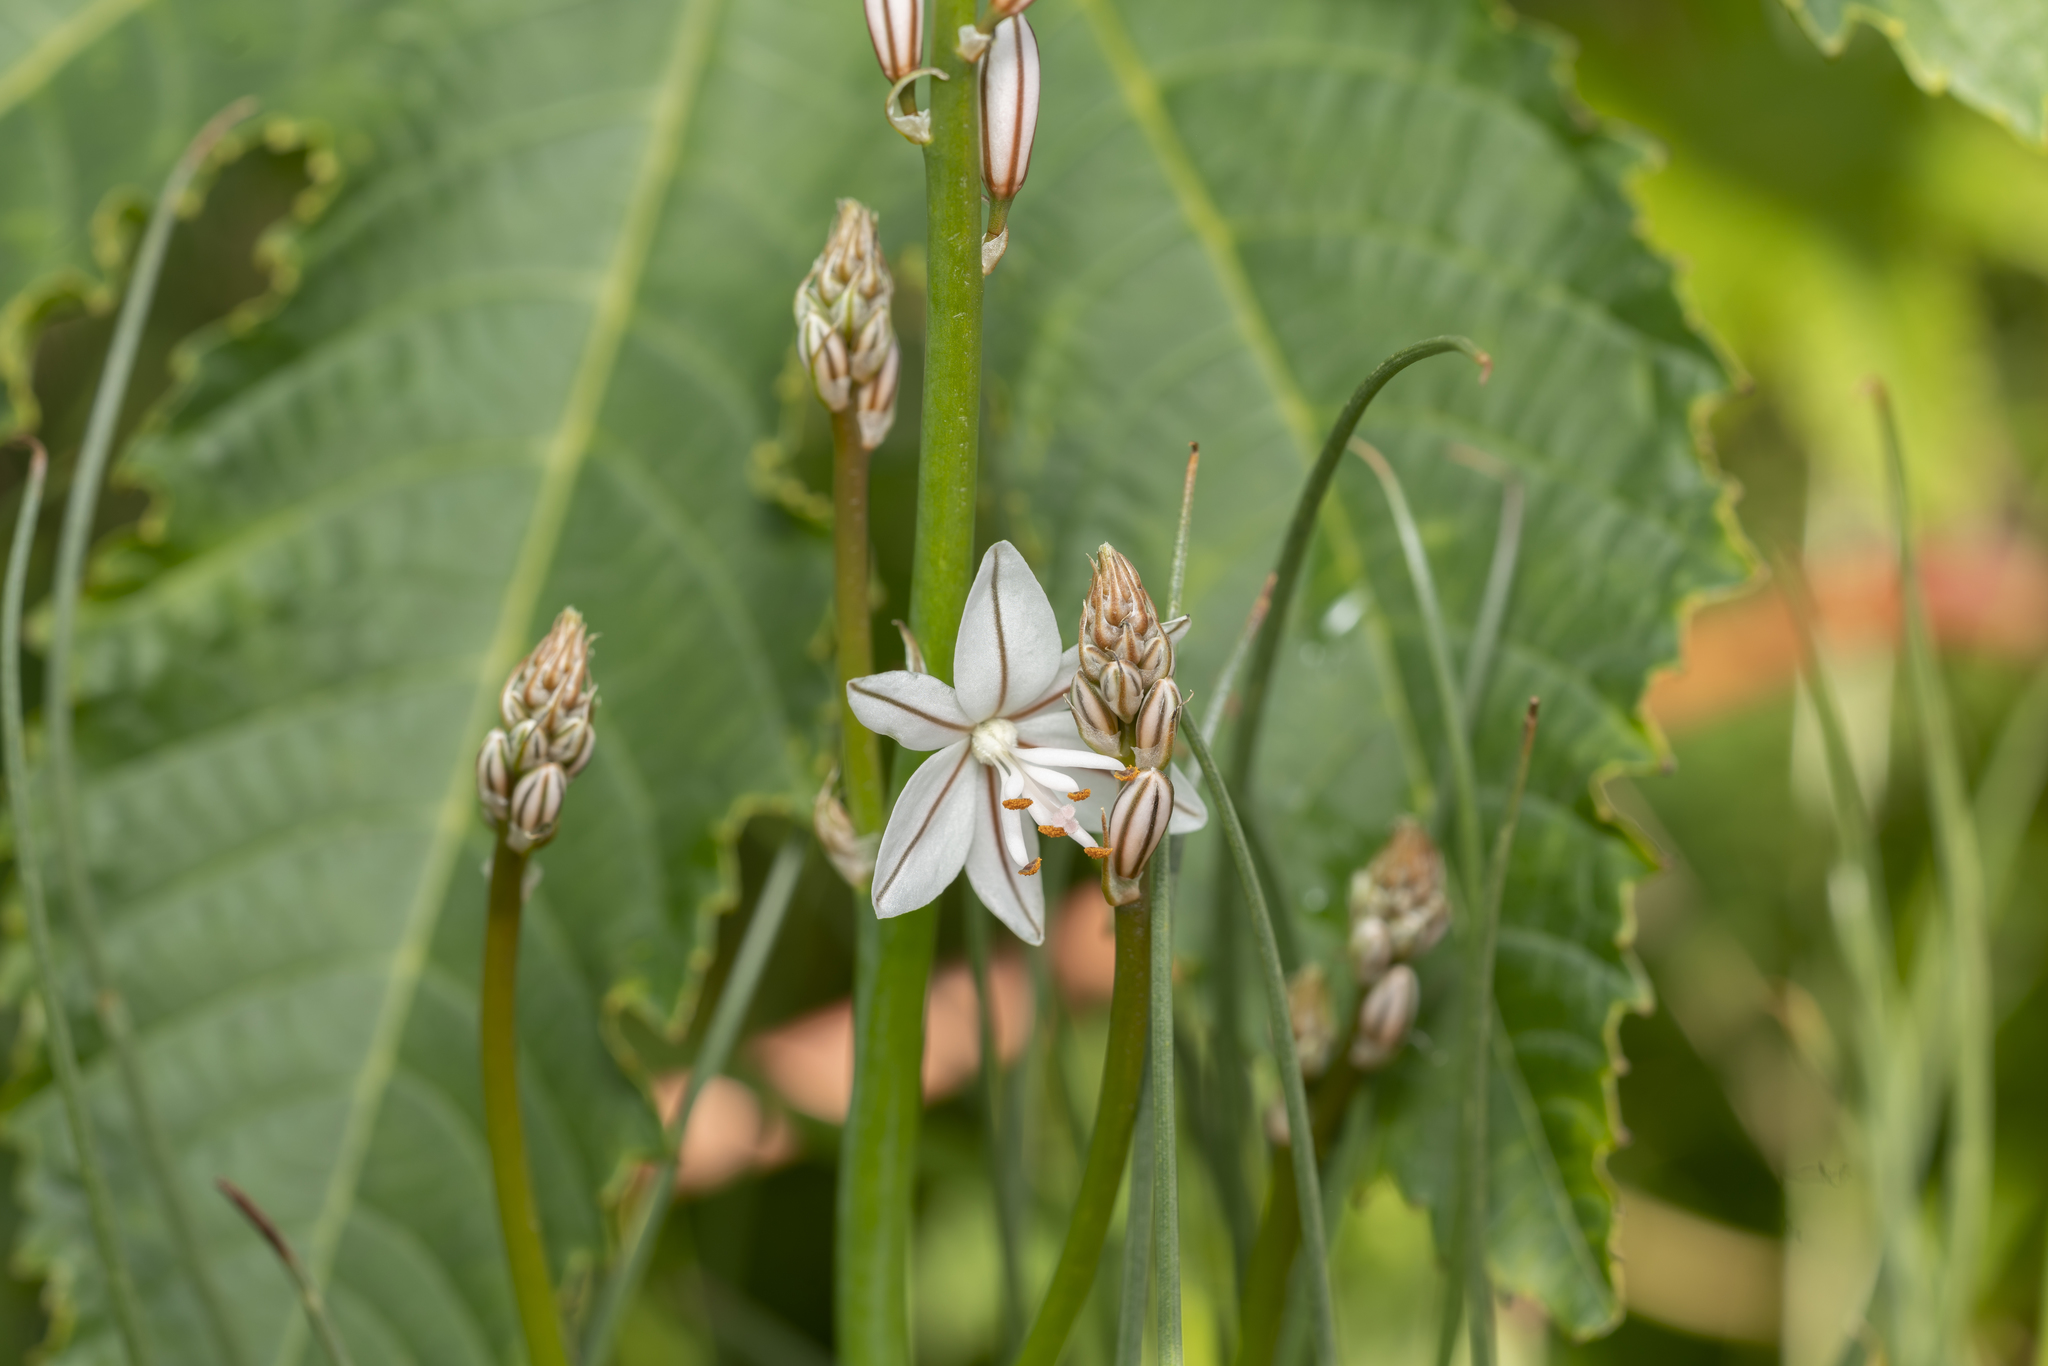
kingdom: Plantae
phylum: Tracheophyta
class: Liliopsida
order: Asparagales
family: Asphodelaceae
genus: Asphodelus
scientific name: Asphodelus fistulosus
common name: Onionweed
